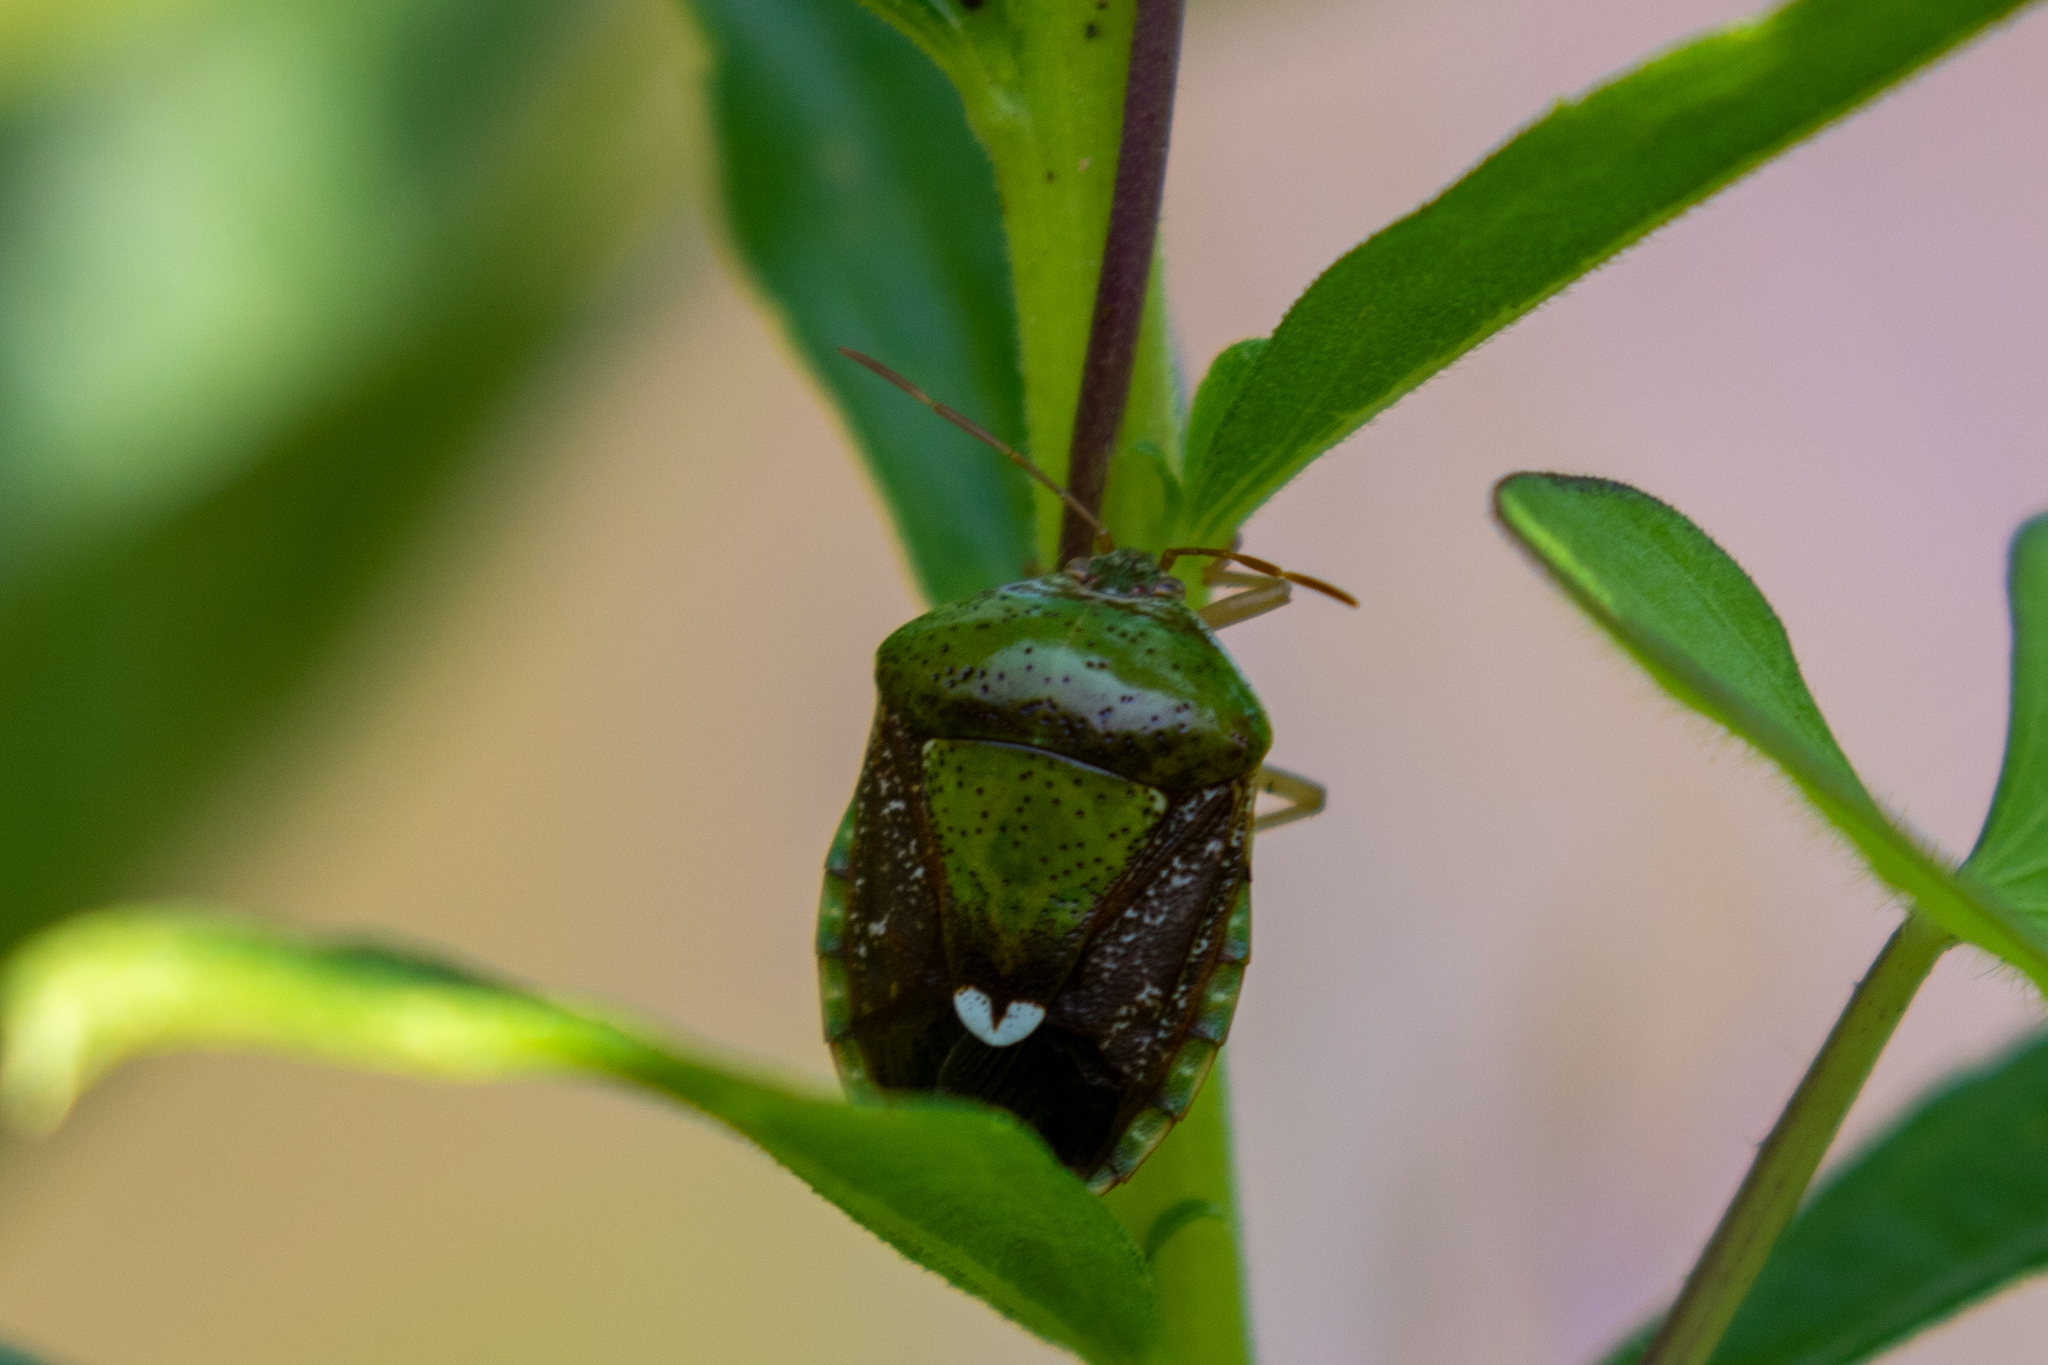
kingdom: Animalia
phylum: Arthropoda
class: Insecta
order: Hemiptera
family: Pentatomidae
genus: Edessa
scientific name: Edessa bifida
